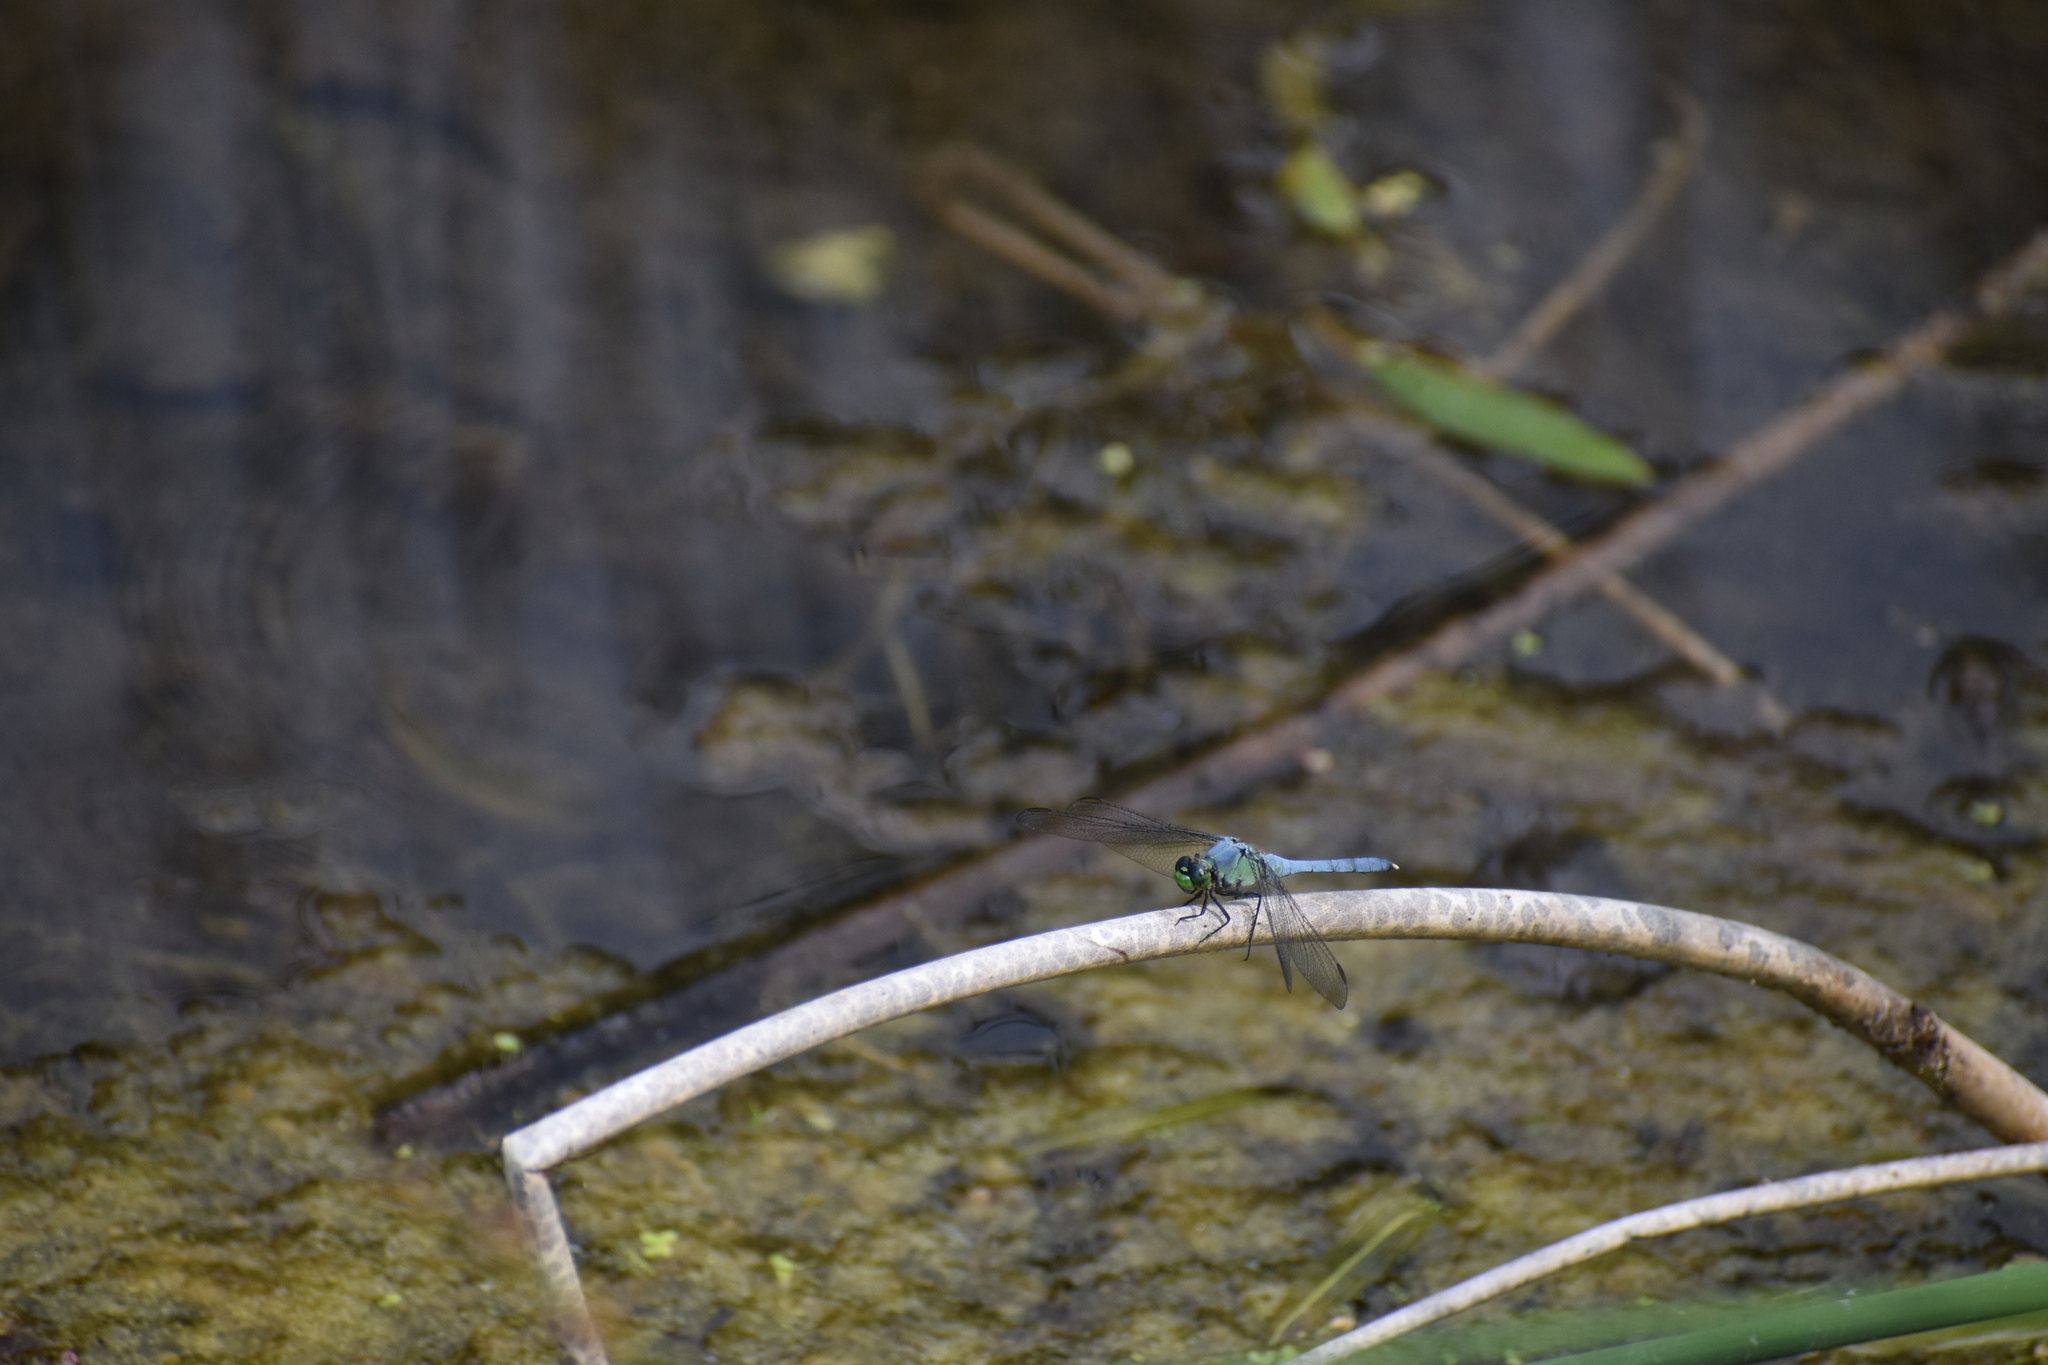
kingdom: Animalia
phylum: Arthropoda
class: Insecta
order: Odonata
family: Libellulidae
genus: Erythemis
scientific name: Erythemis simplicicollis
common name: Eastern pondhawk
